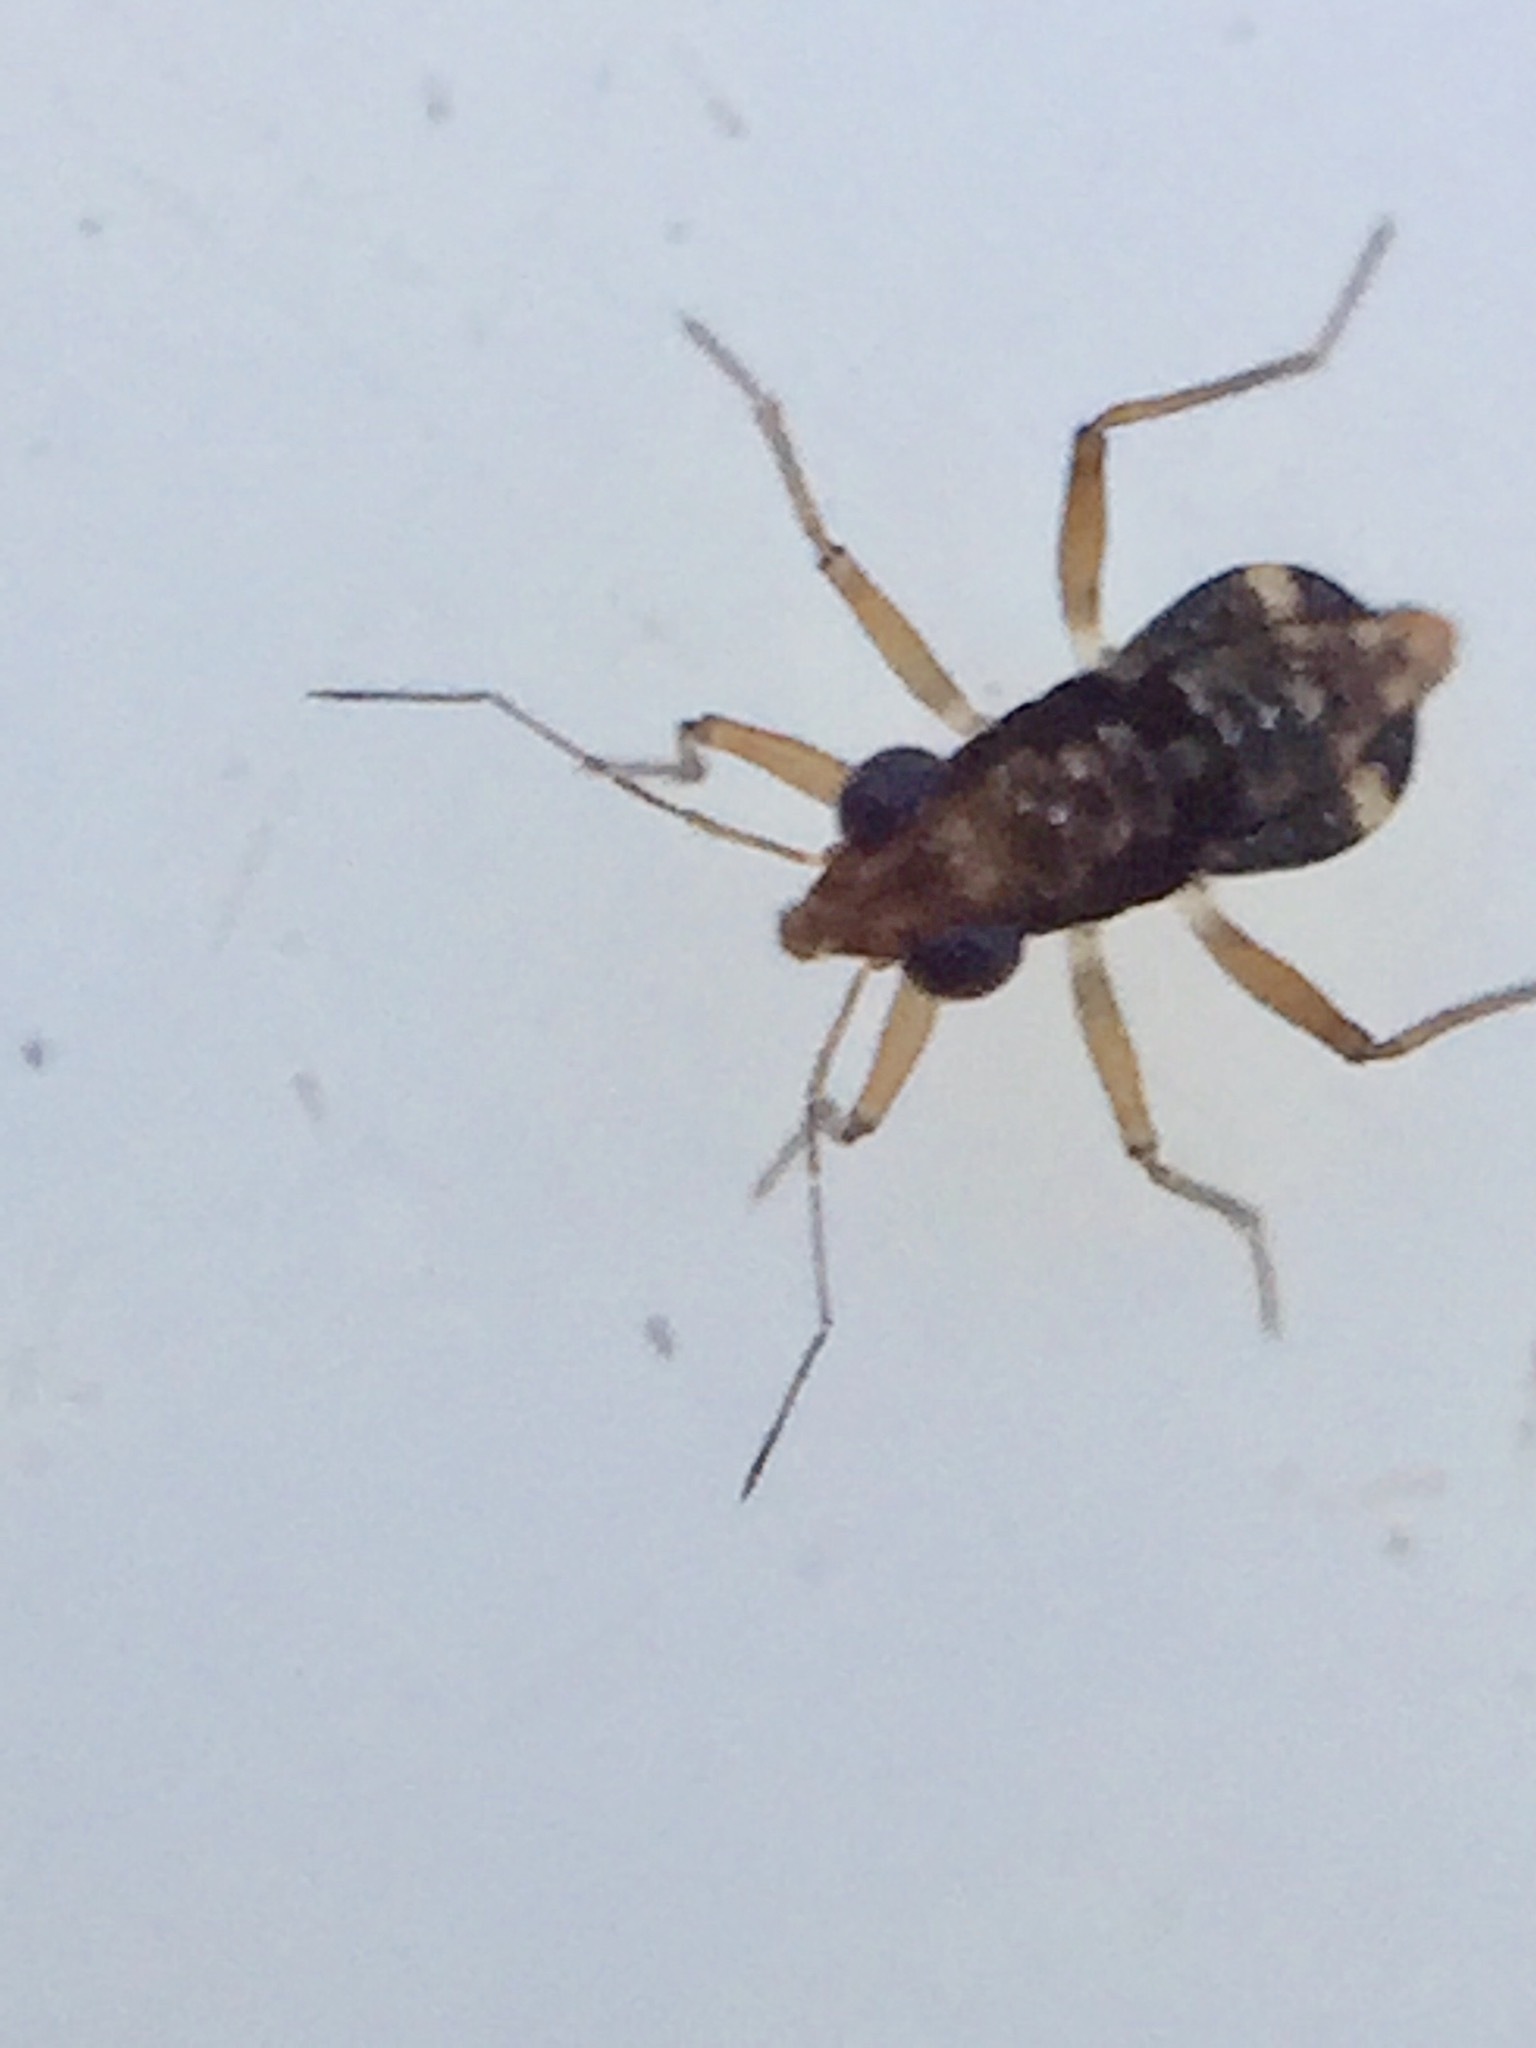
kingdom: Animalia
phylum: Arthropoda
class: Insecta
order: Hemiptera
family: Mesoveliidae
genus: Mniovelia
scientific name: Mniovelia kuscheli
